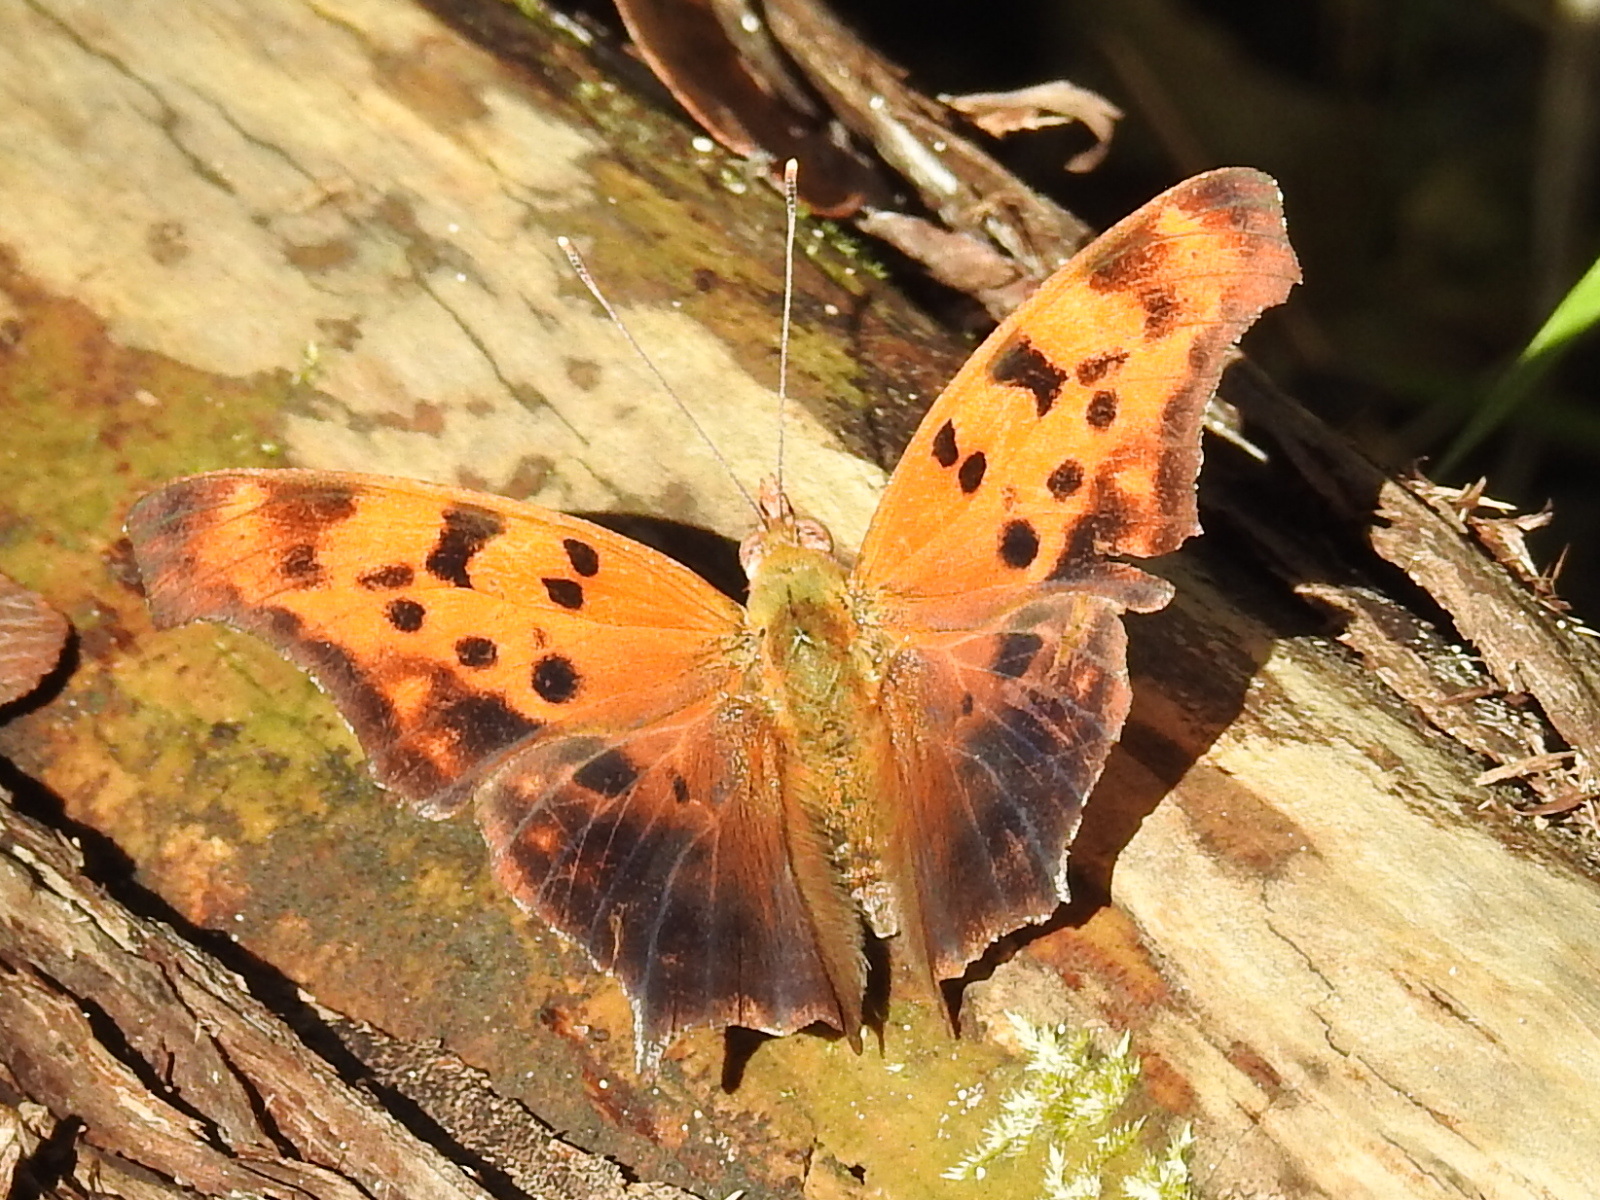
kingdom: Animalia
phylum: Arthropoda
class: Insecta
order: Lepidoptera
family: Nymphalidae
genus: Polygonia
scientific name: Polygonia interrogationis
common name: Question mark
